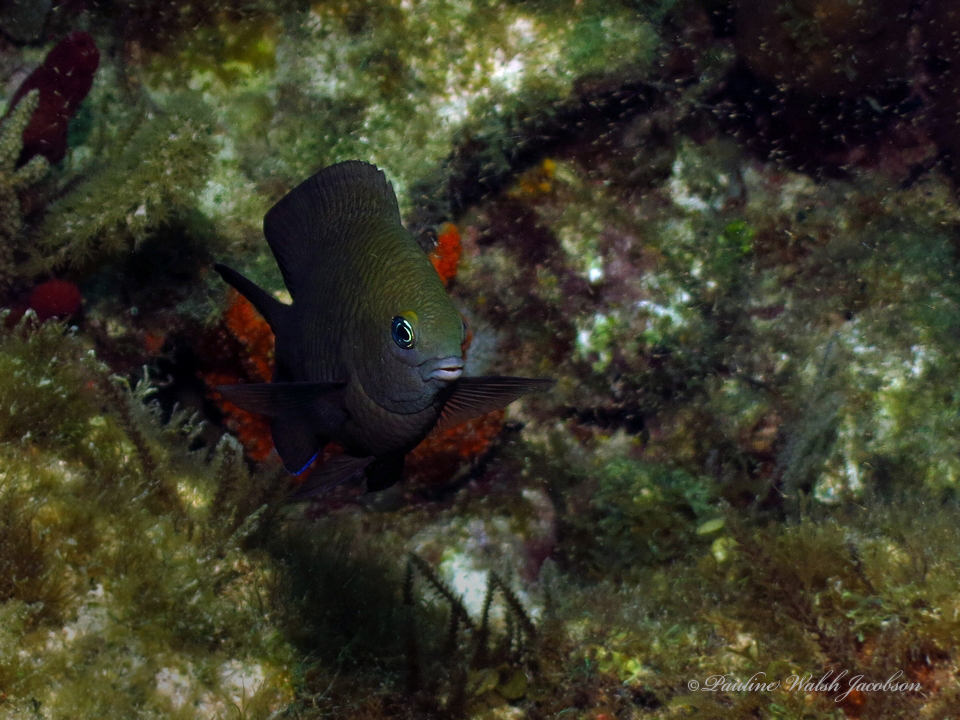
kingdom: Animalia
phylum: Chordata
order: Perciformes
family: Pomacentridae
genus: Stegastes
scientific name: Stegastes diencaeus
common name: Longfin damselfish
